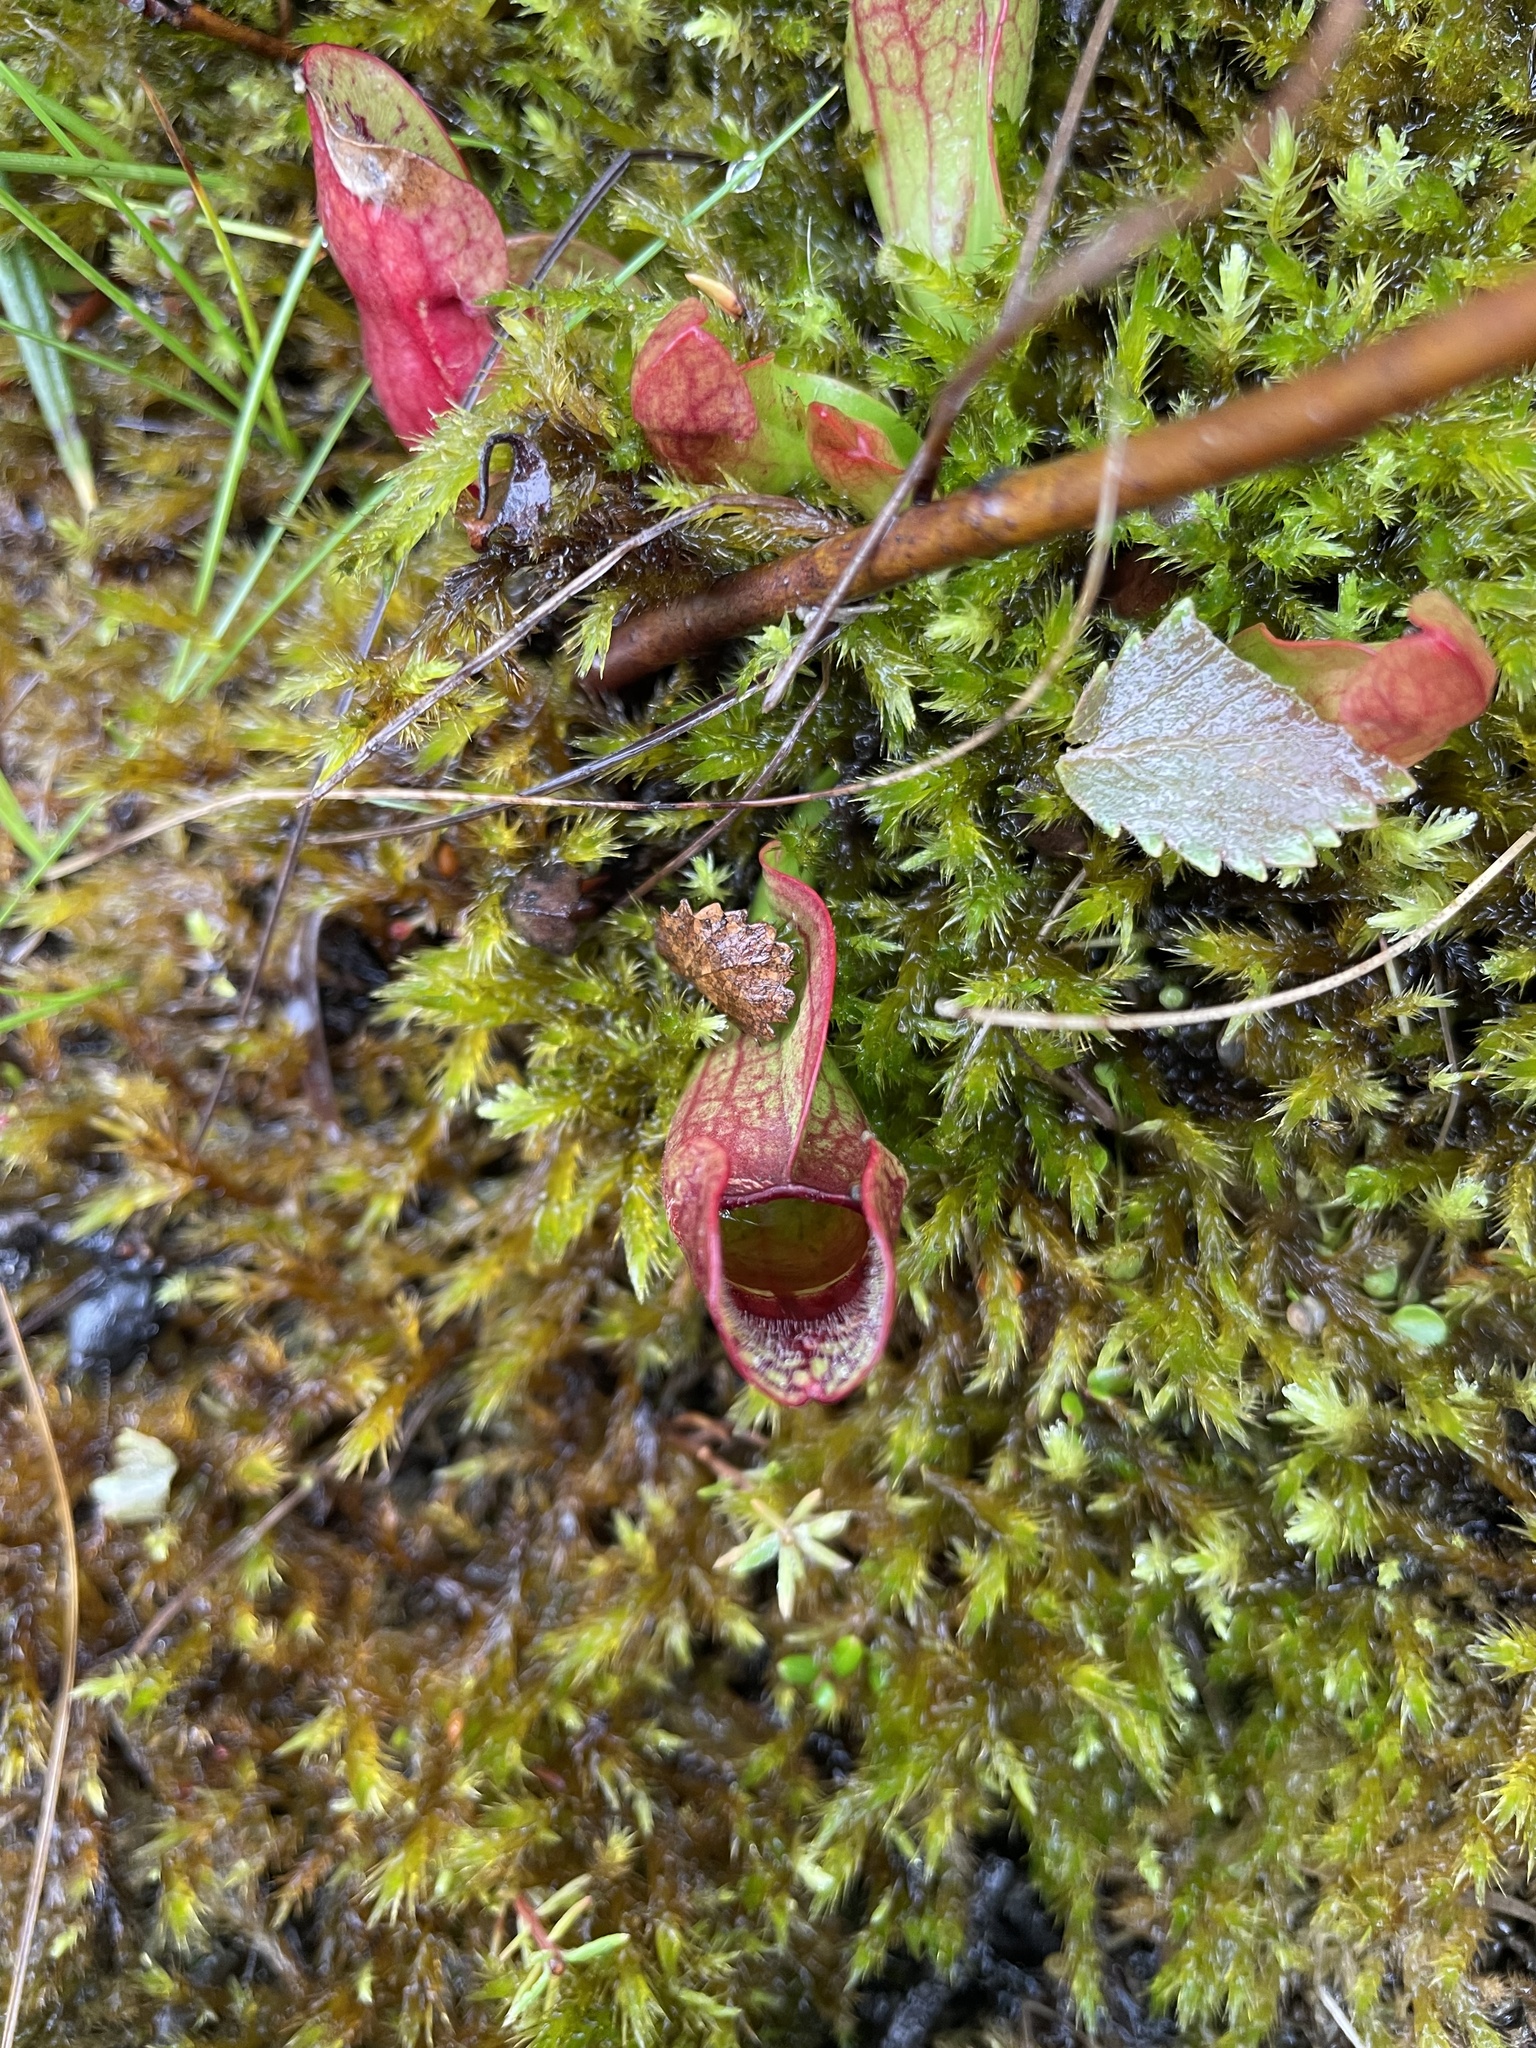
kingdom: Plantae
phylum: Tracheophyta
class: Magnoliopsida
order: Ericales
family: Sarraceniaceae
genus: Sarracenia
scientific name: Sarracenia purpurea
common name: Pitcherplant
